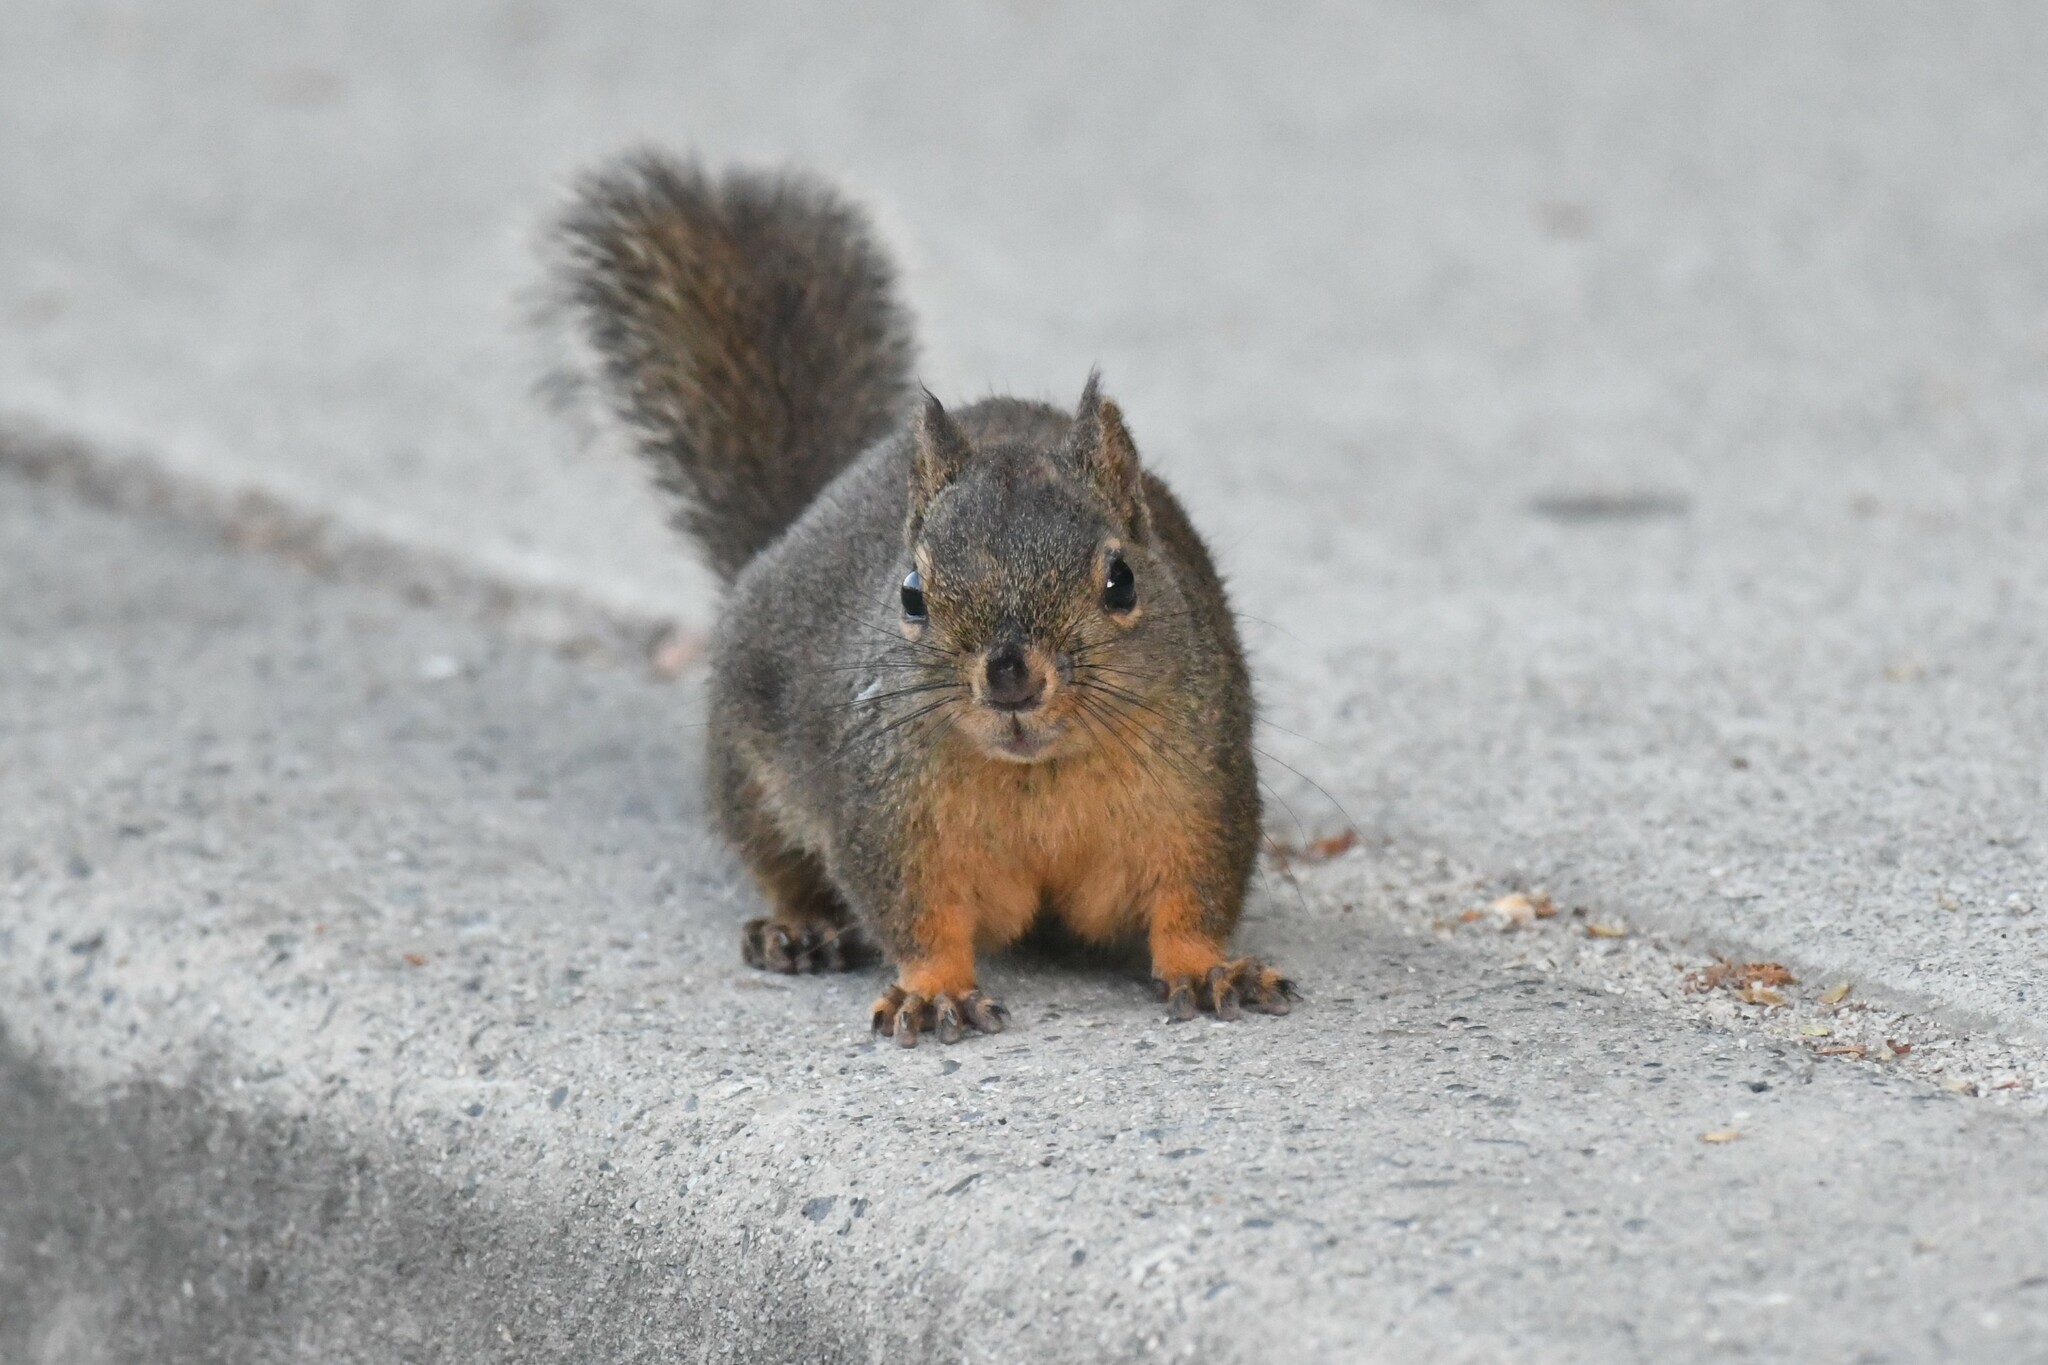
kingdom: Animalia
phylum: Chordata
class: Mammalia
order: Rodentia
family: Sciuridae
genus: Tamiasciurus
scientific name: Tamiasciurus douglasii
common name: Douglas's squirrel
